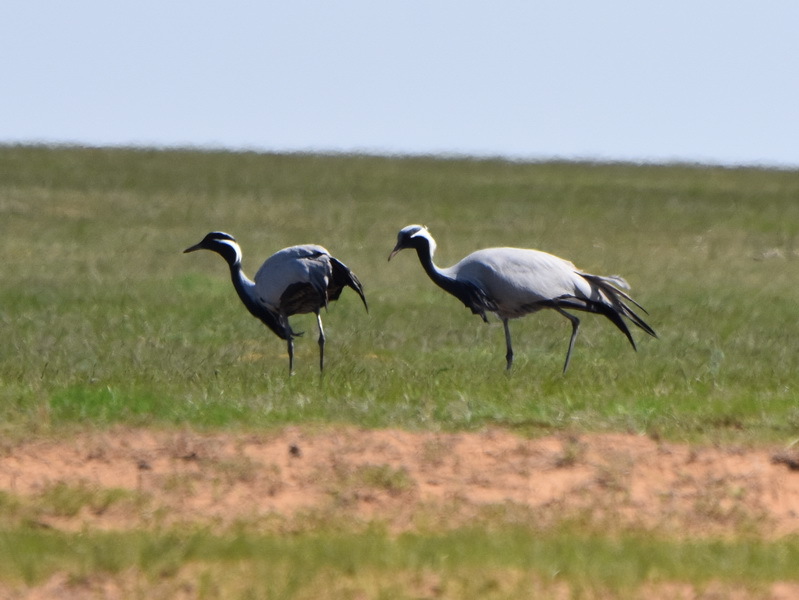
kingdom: Animalia
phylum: Chordata
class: Aves
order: Gruiformes
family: Gruidae
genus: Anthropoides
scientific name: Anthropoides virgo
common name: Demoiselle crane
